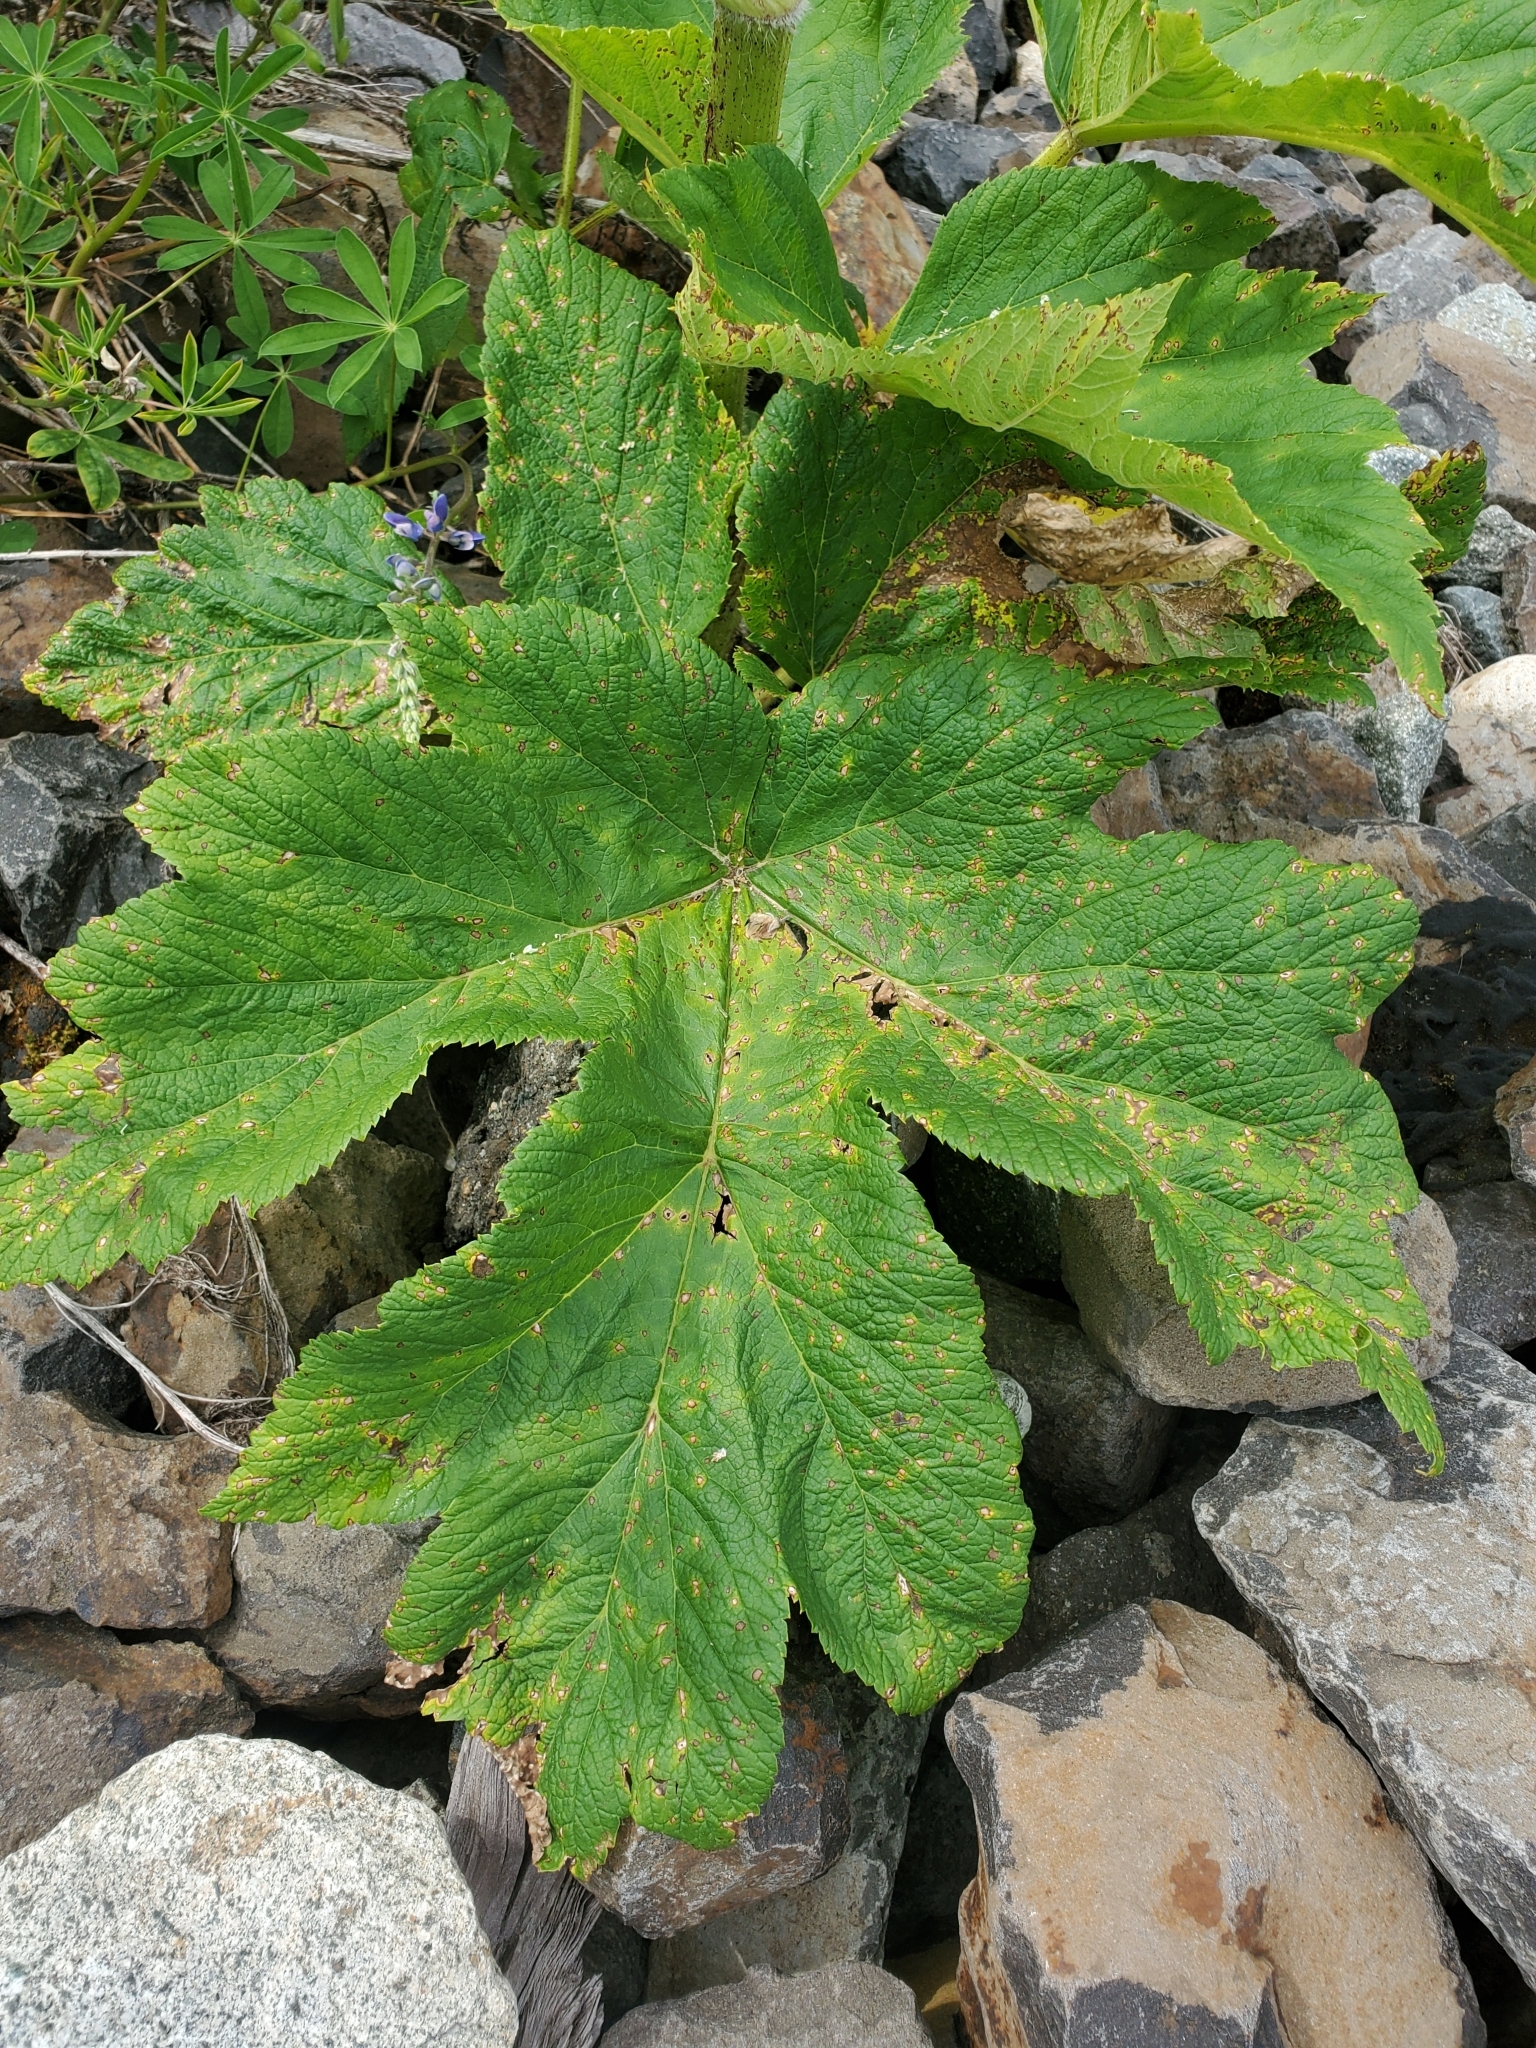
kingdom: Plantae
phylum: Tracheophyta
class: Magnoliopsida
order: Apiales
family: Apiaceae
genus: Heracleum
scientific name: Heracleum maximum
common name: American cow parsnip
